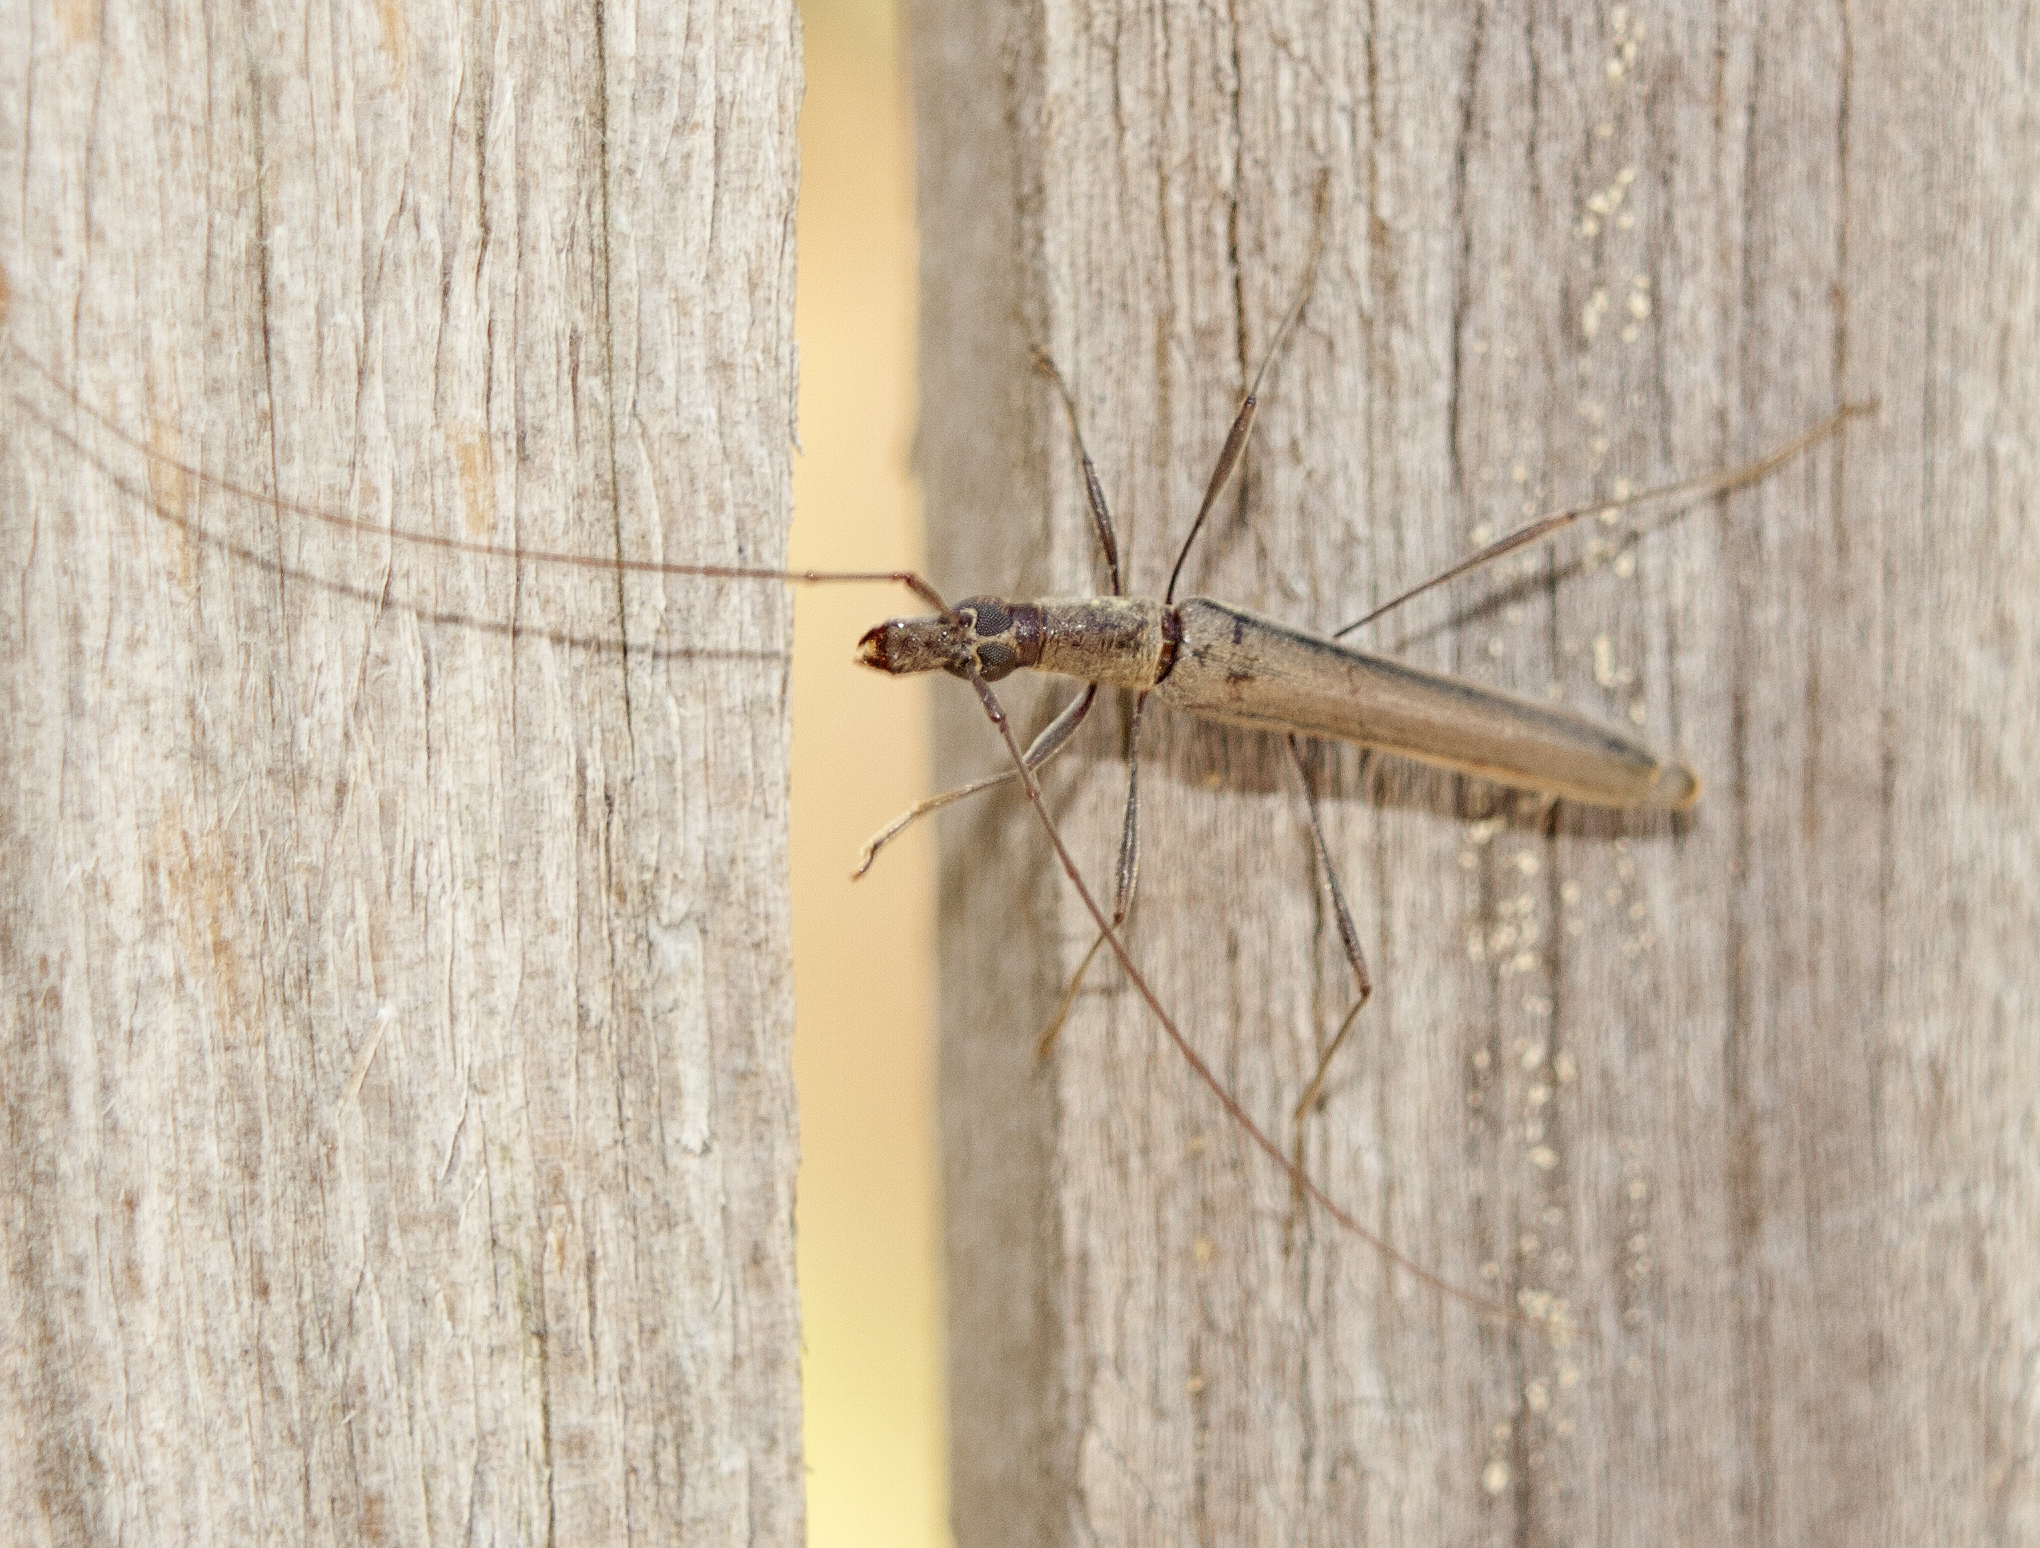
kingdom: Animalia
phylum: Arthropoda
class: Insecta
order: Coleoptera
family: Cerambycidae
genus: Rhinophthalmus
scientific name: Rhinophthalmus nasutus
